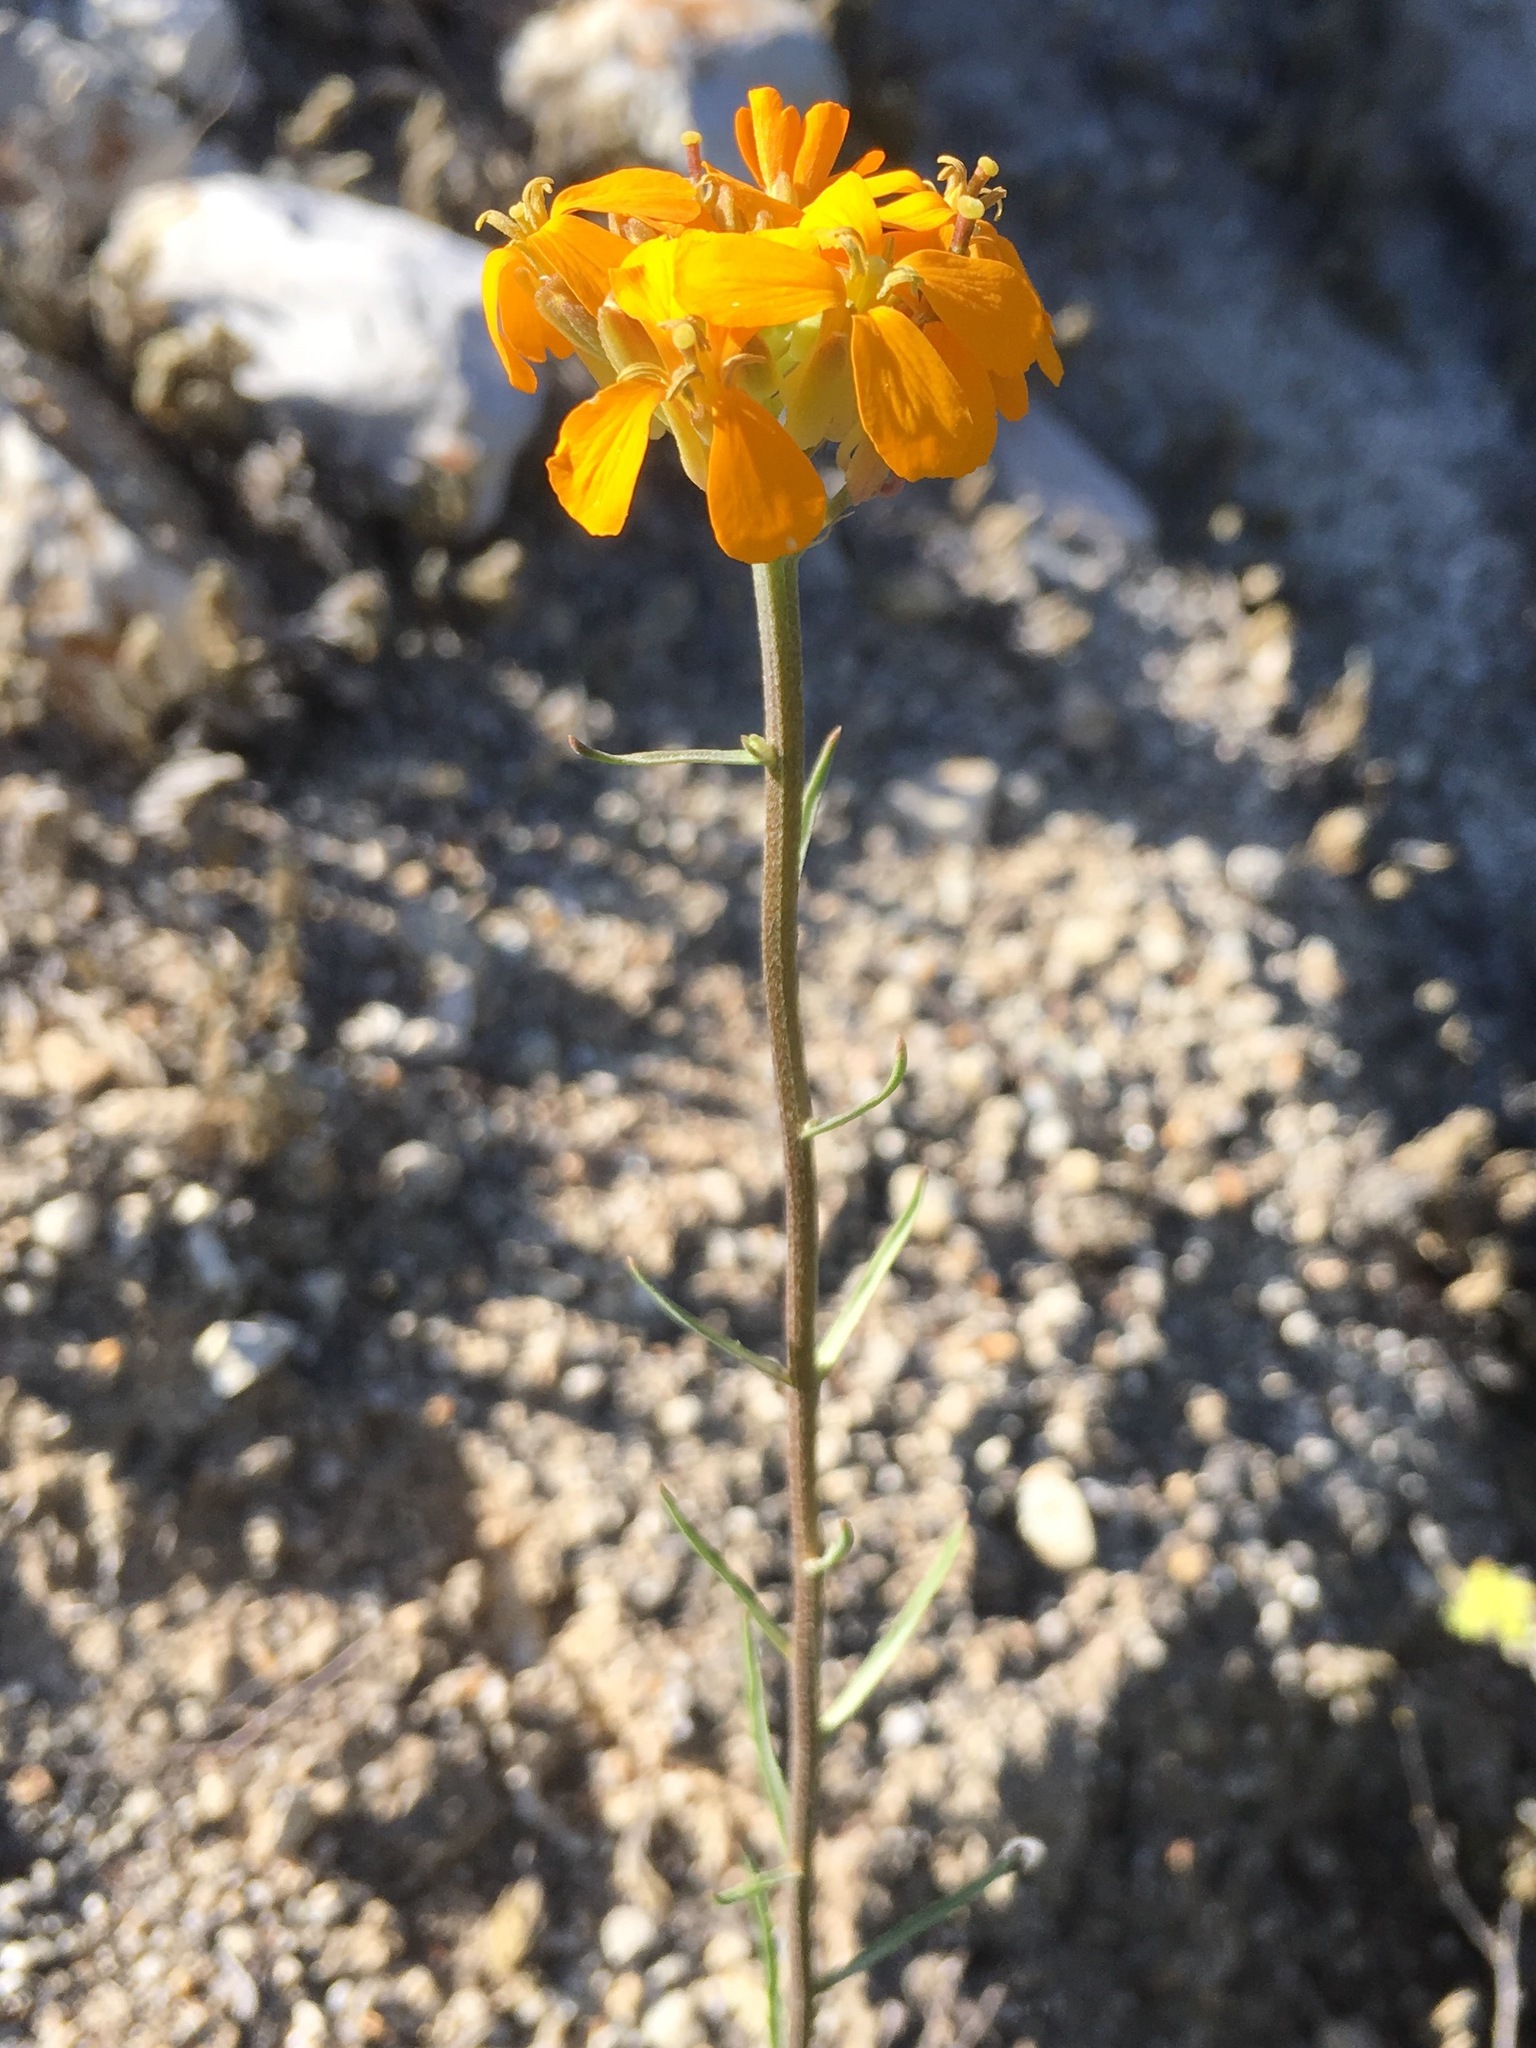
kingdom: Plantae
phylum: Tracheophyta
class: Magnoliopsida
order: Brassicales
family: Brassicaceae
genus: Erysimum
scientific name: Erysimum capitatum
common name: Western wallflower
